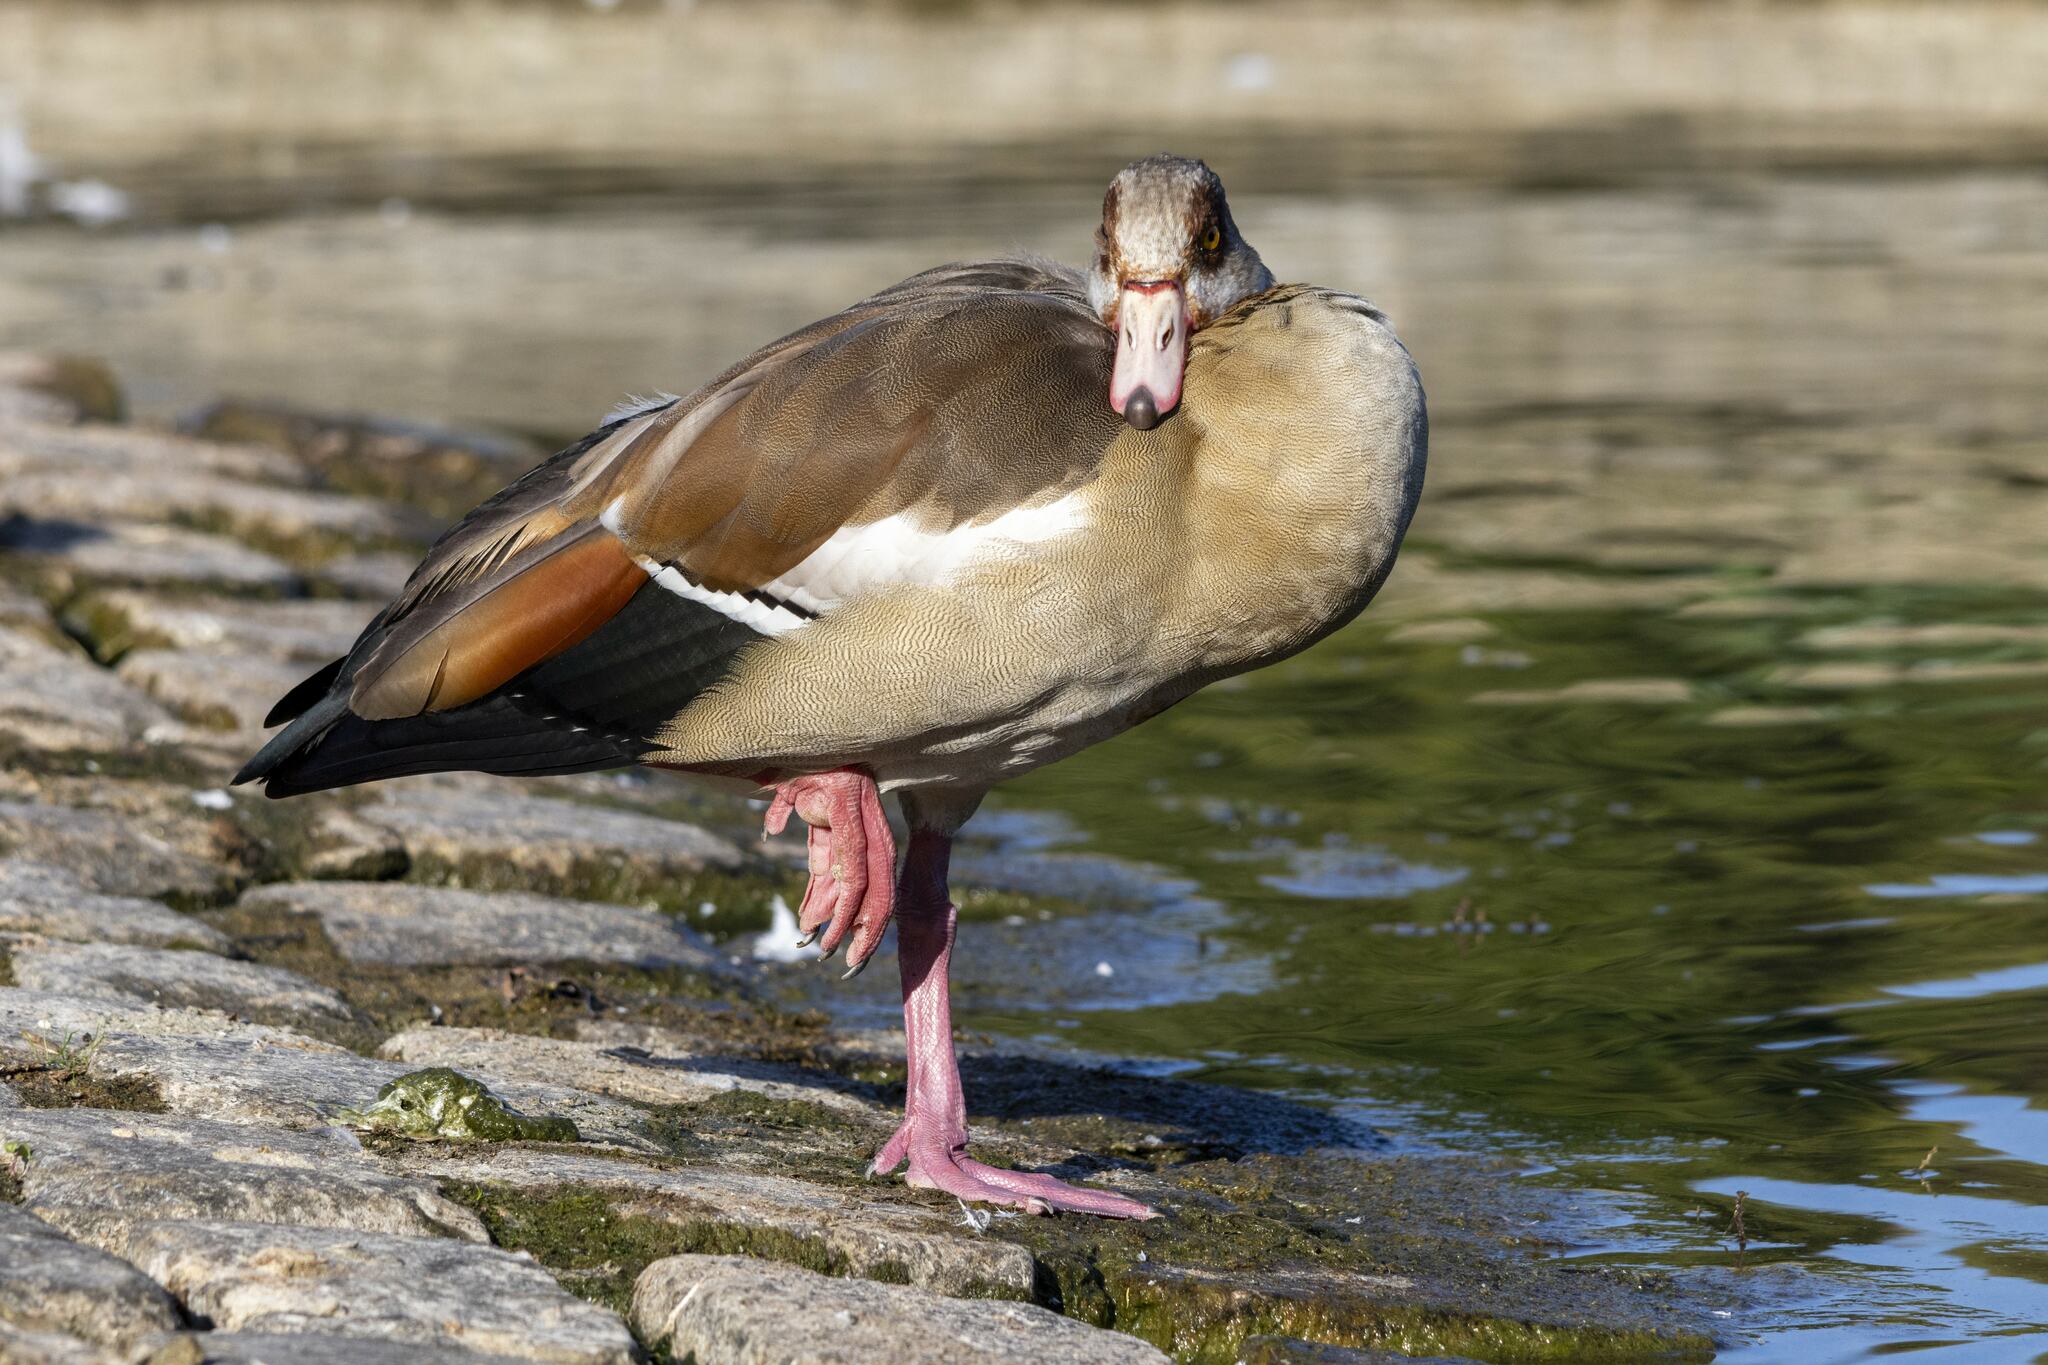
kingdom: Animalia
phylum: Chordata
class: Aves
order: Anseriformes
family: Anatidae
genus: Alopochen
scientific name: Alopochen aegyptiaca
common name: Egyptian goose
